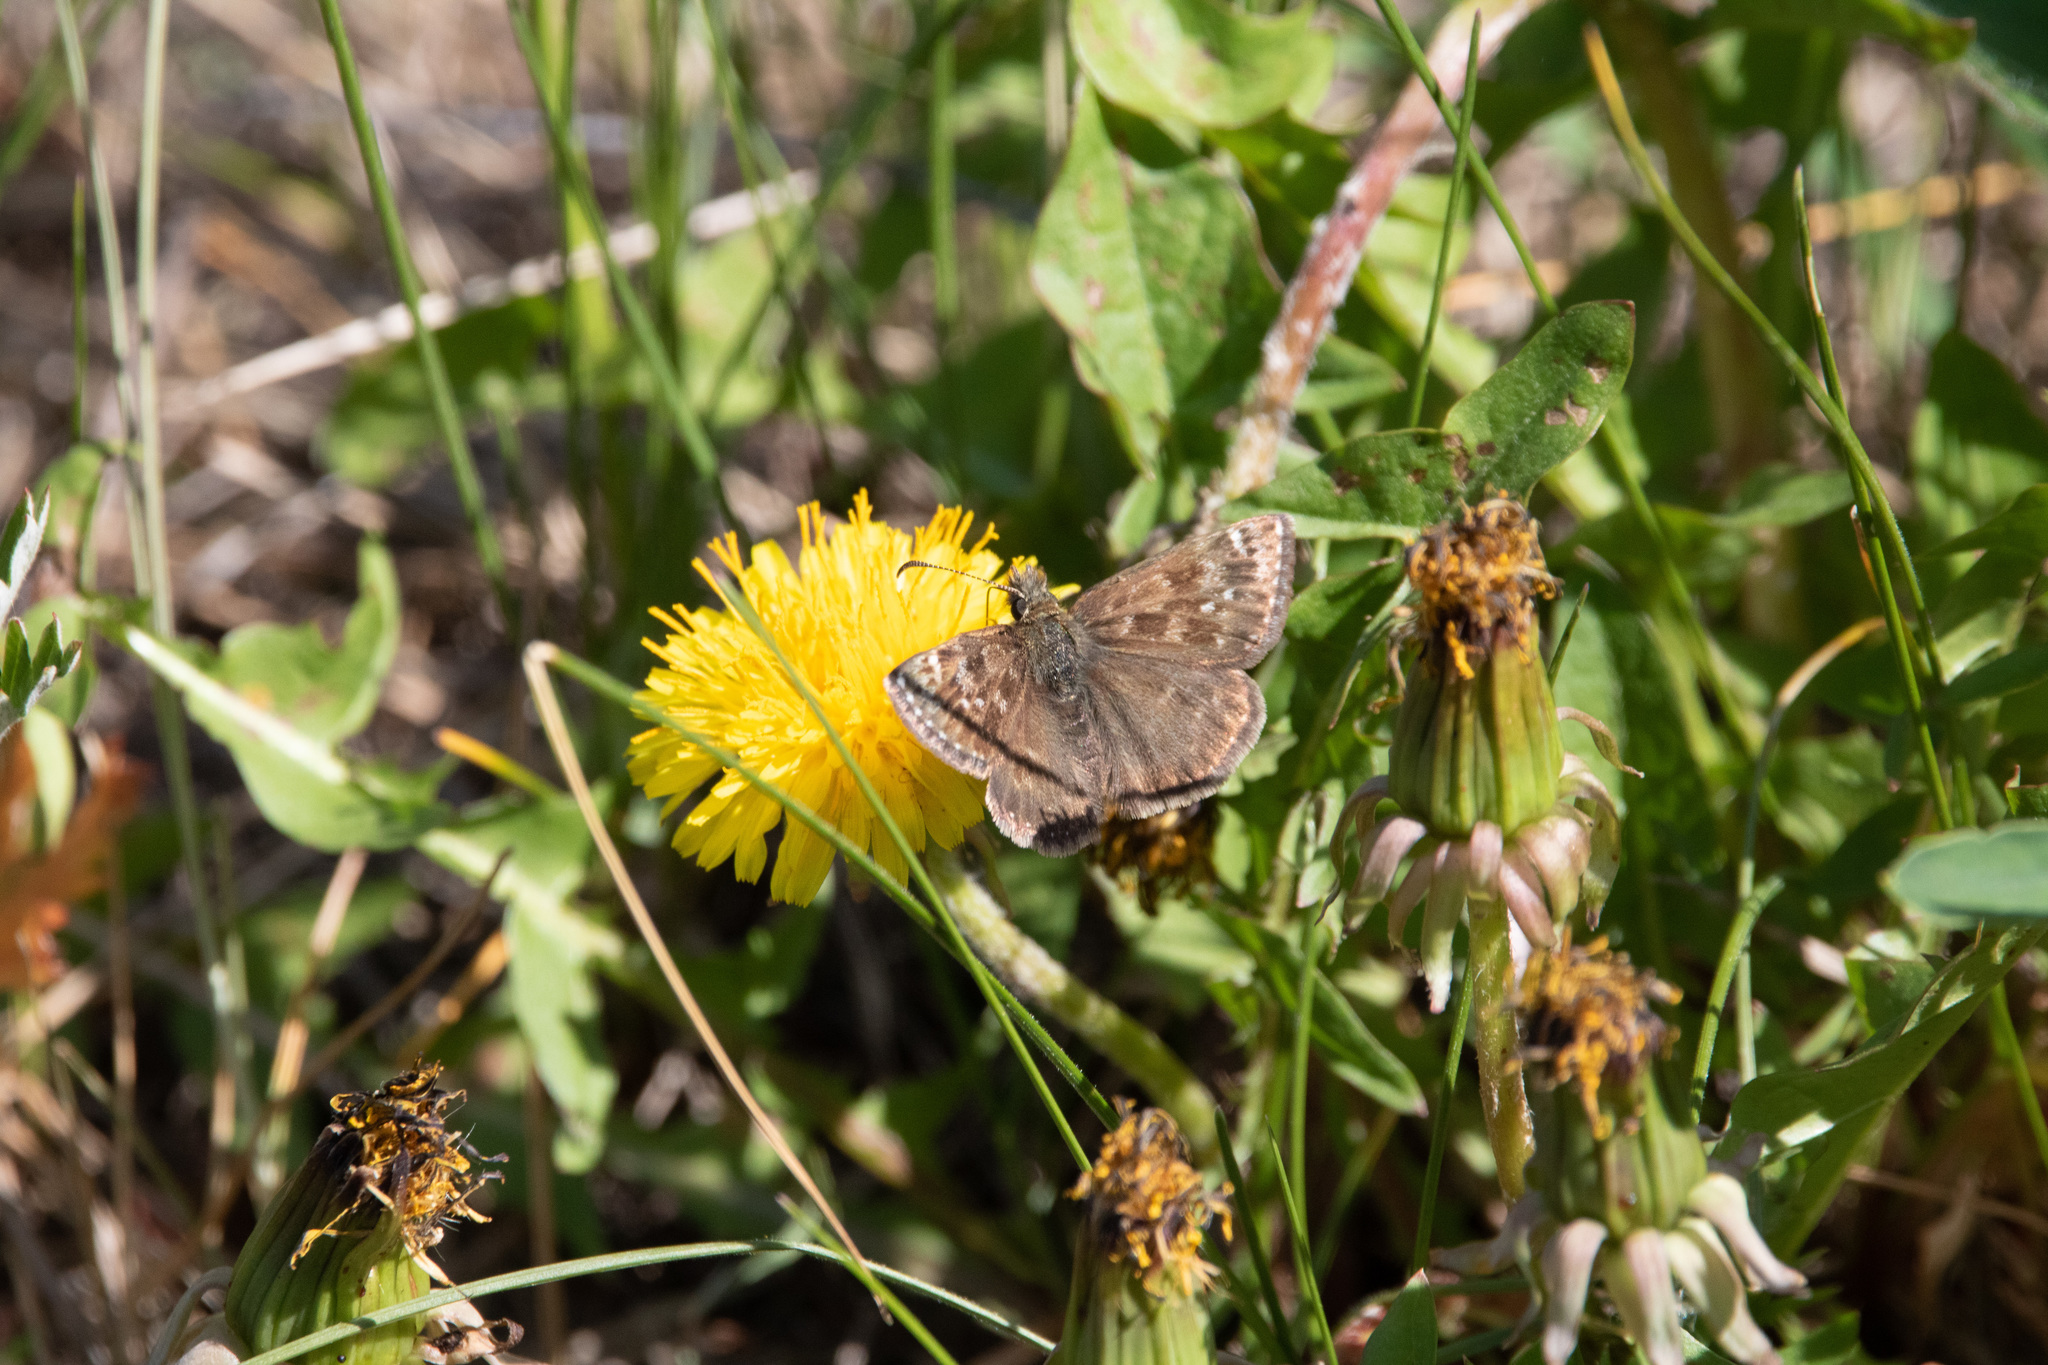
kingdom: Animalia
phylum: Arthropoda
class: Insecta
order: Lepidoptera
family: Hesperiidae
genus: Erynnis
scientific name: Erynnis tages
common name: Dingy skipper
